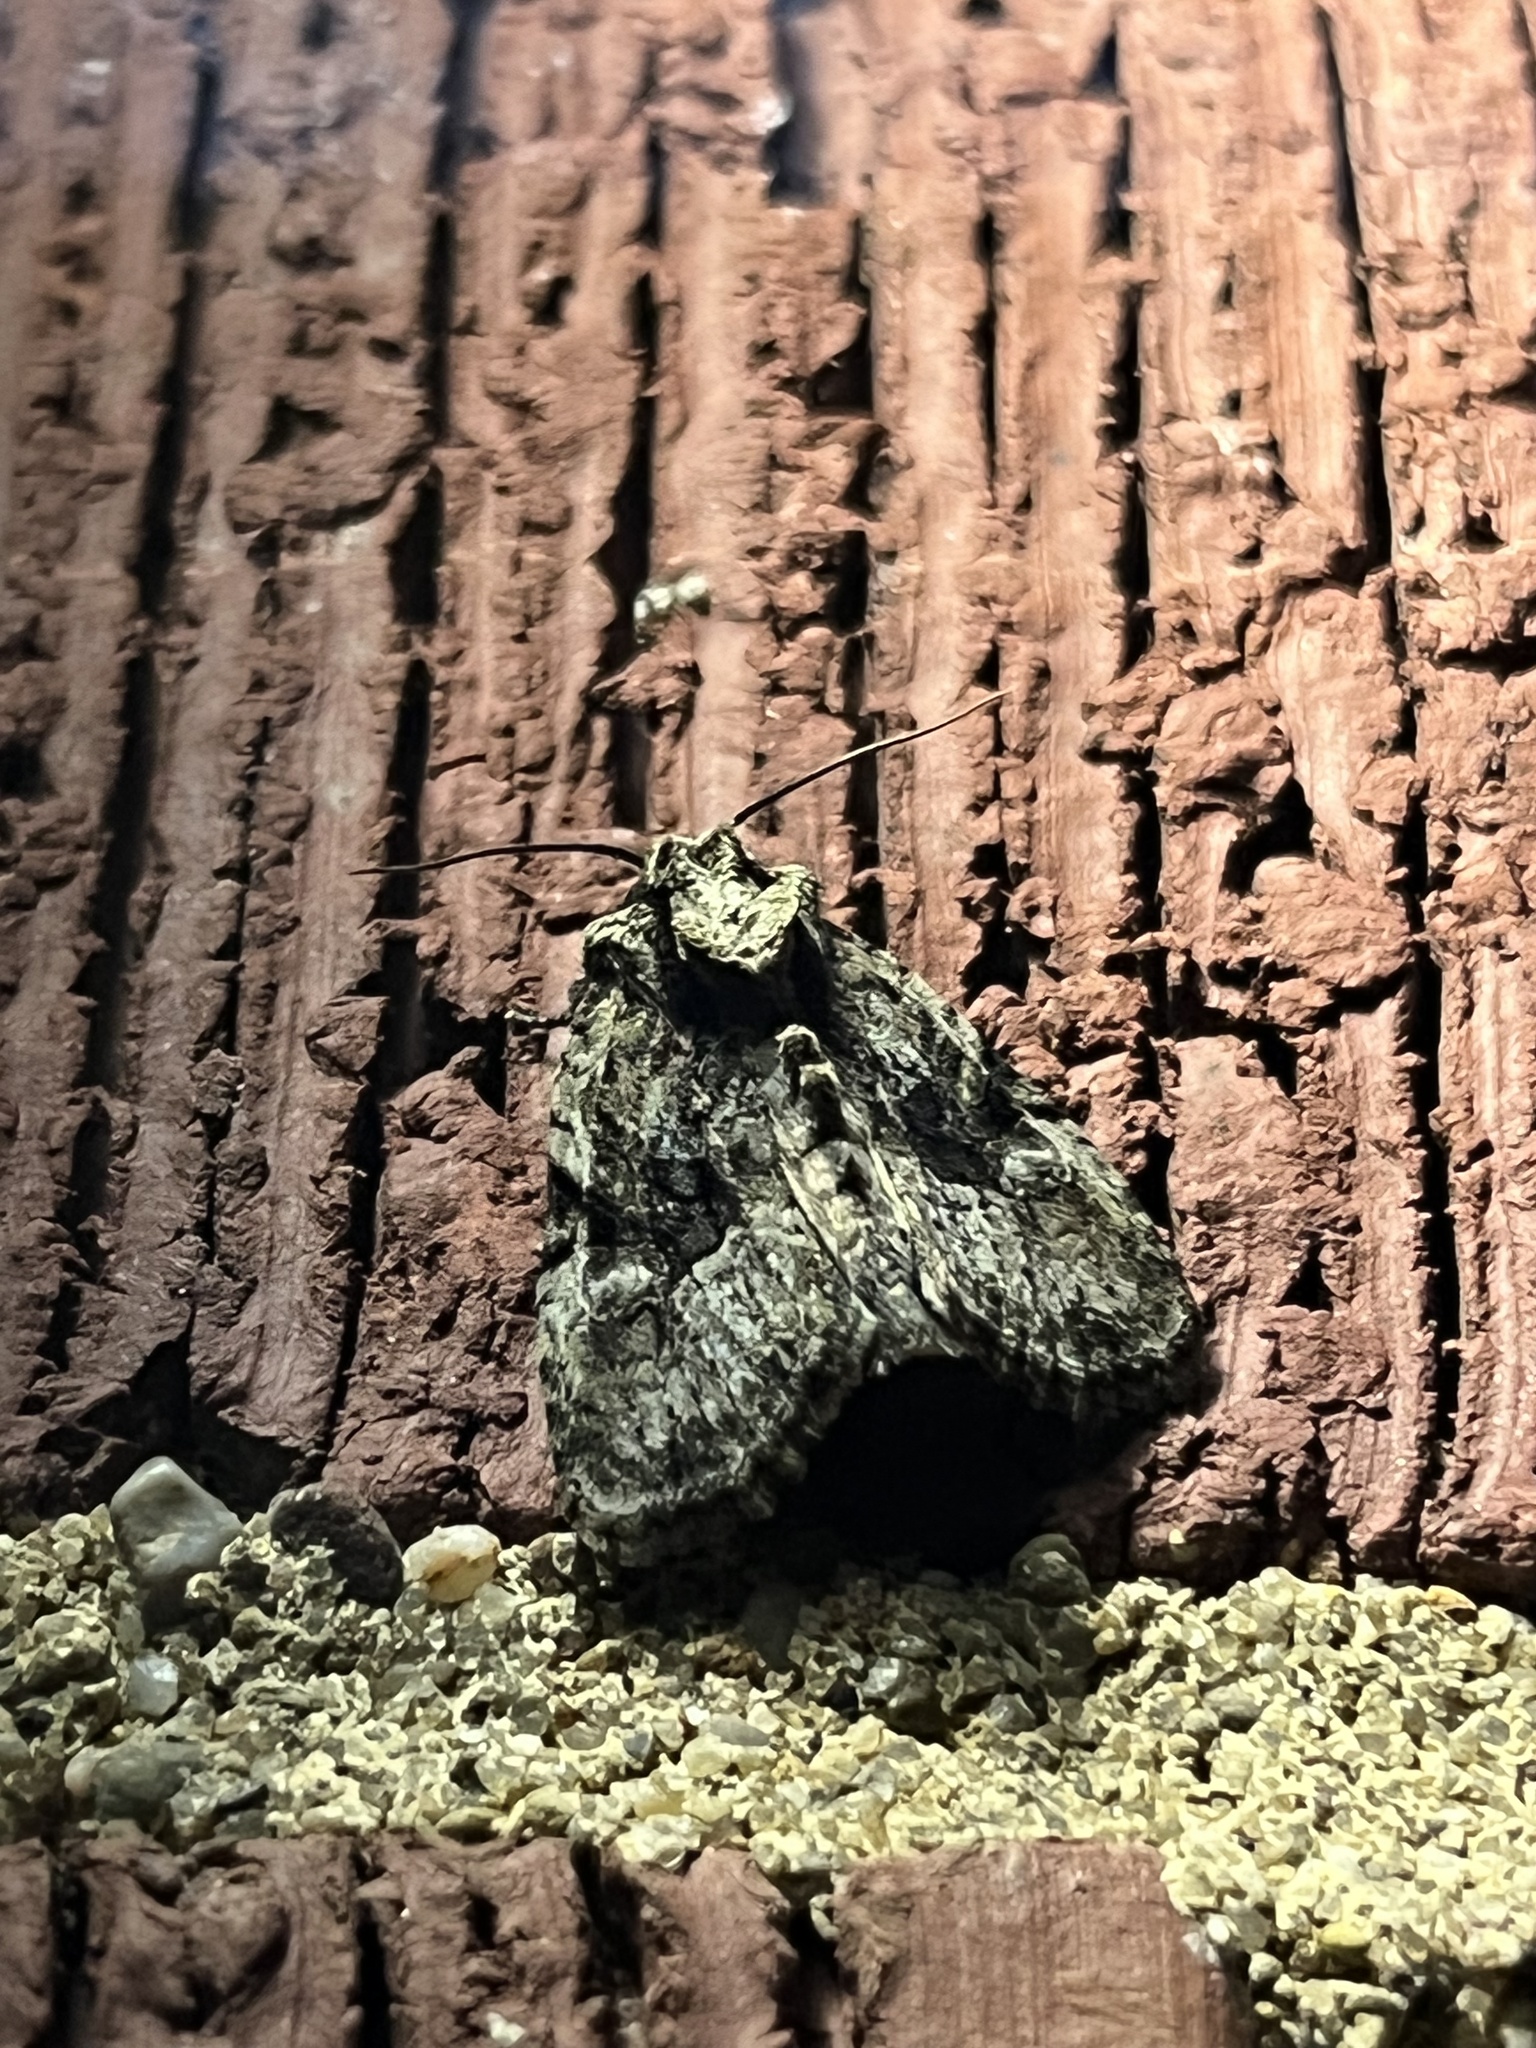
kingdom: Animalia
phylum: Arthropoda
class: Insecta
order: Lepidoptera
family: Noctuidae
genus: Oligia
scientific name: Oligia modica
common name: Black-banded brocade
